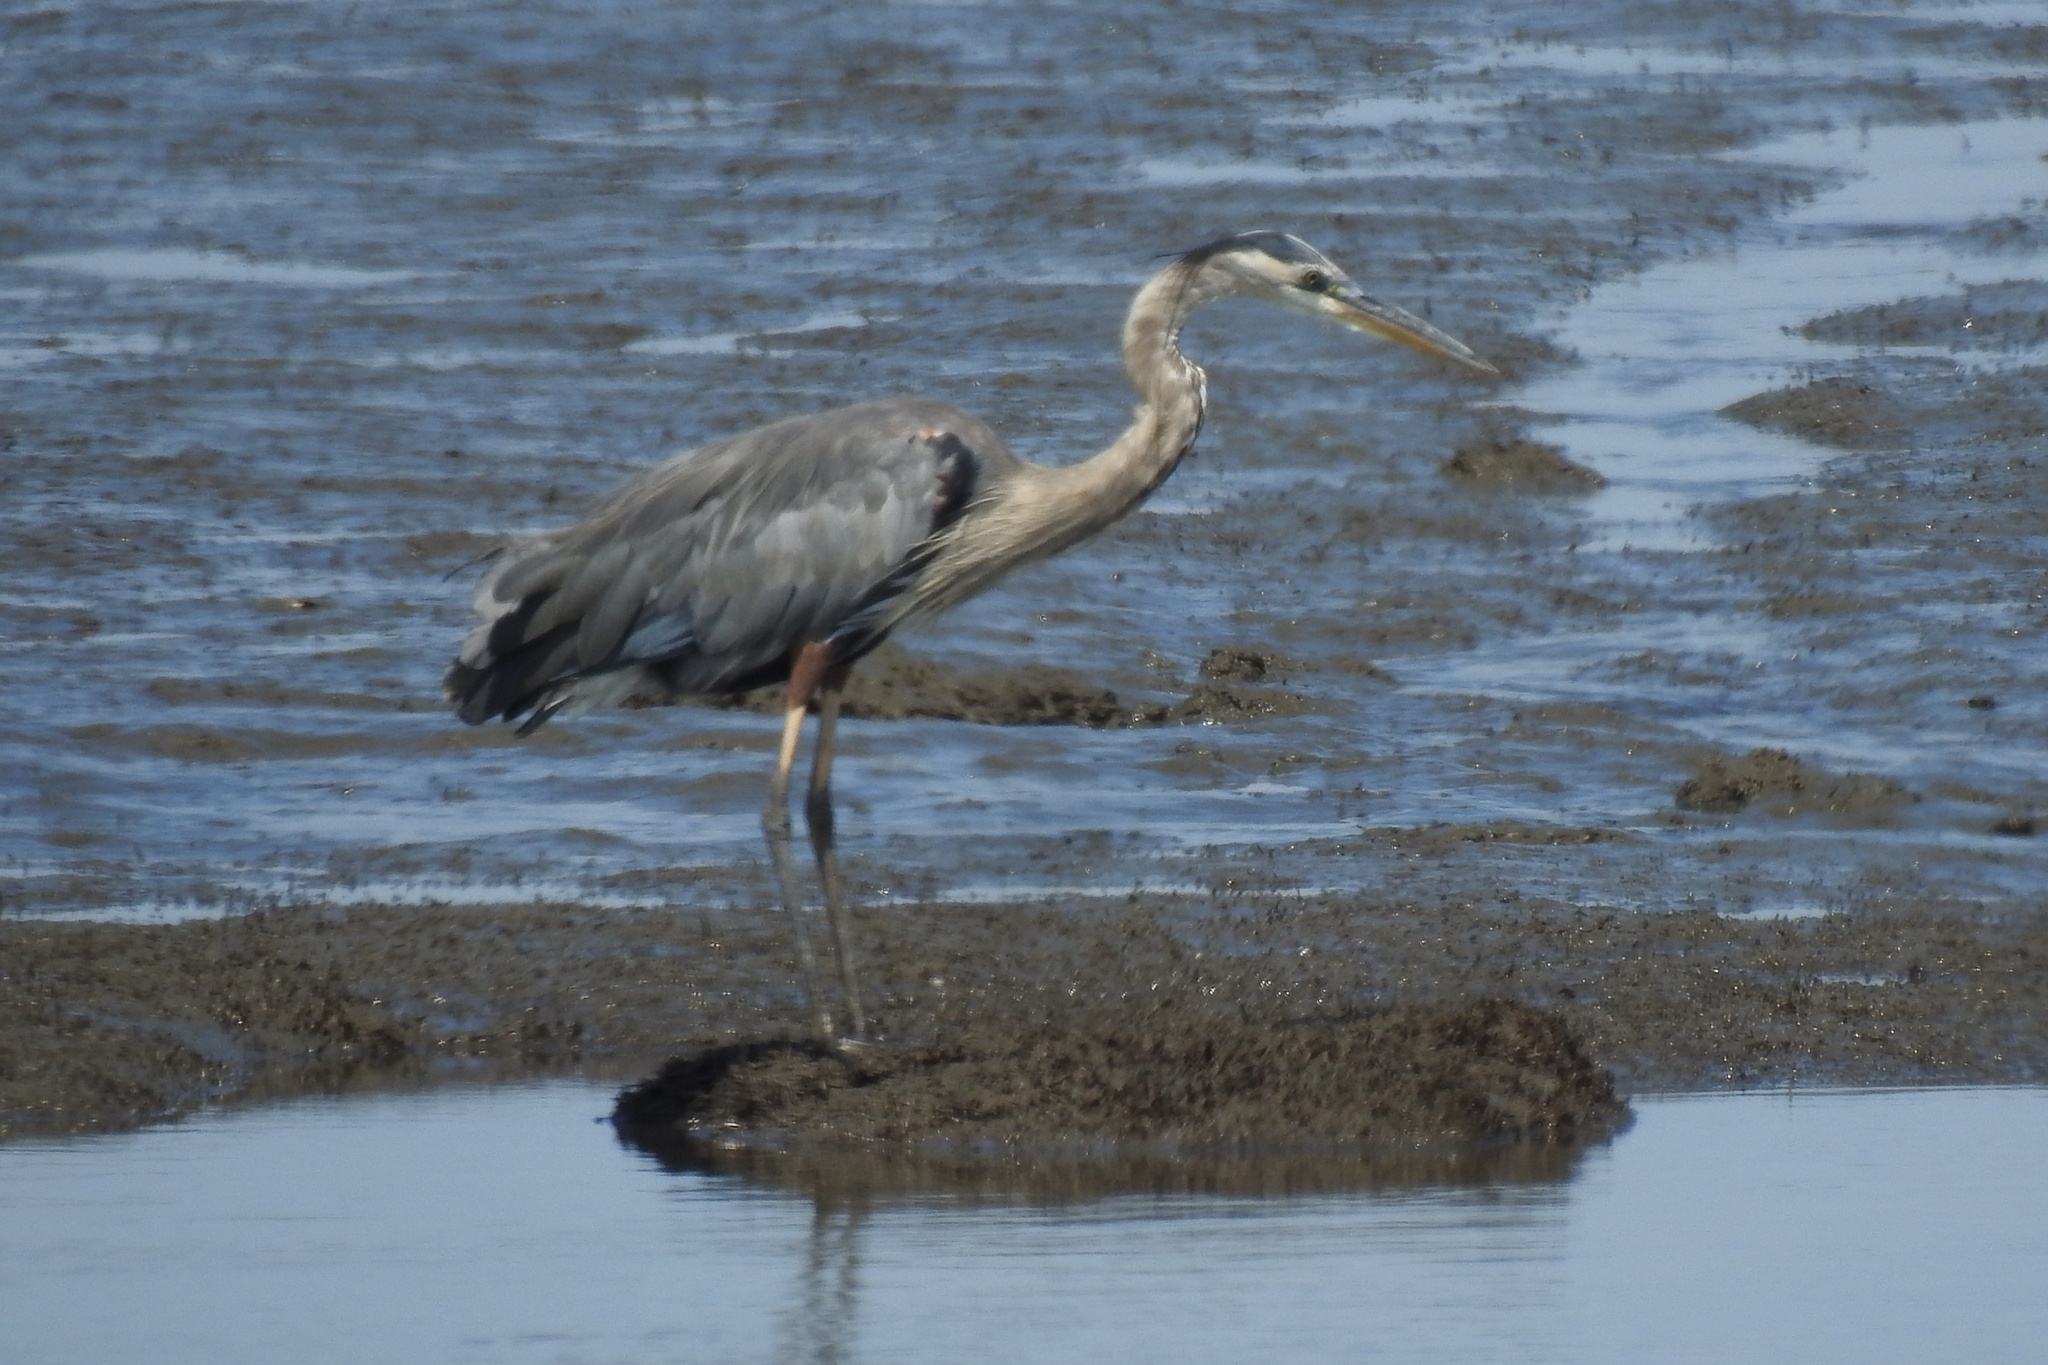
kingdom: Animalia
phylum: Chordata
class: Aves
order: Pelecaniformes
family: Ardeidae
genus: Ardea
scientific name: Ardea herodias
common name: Great blue heron
